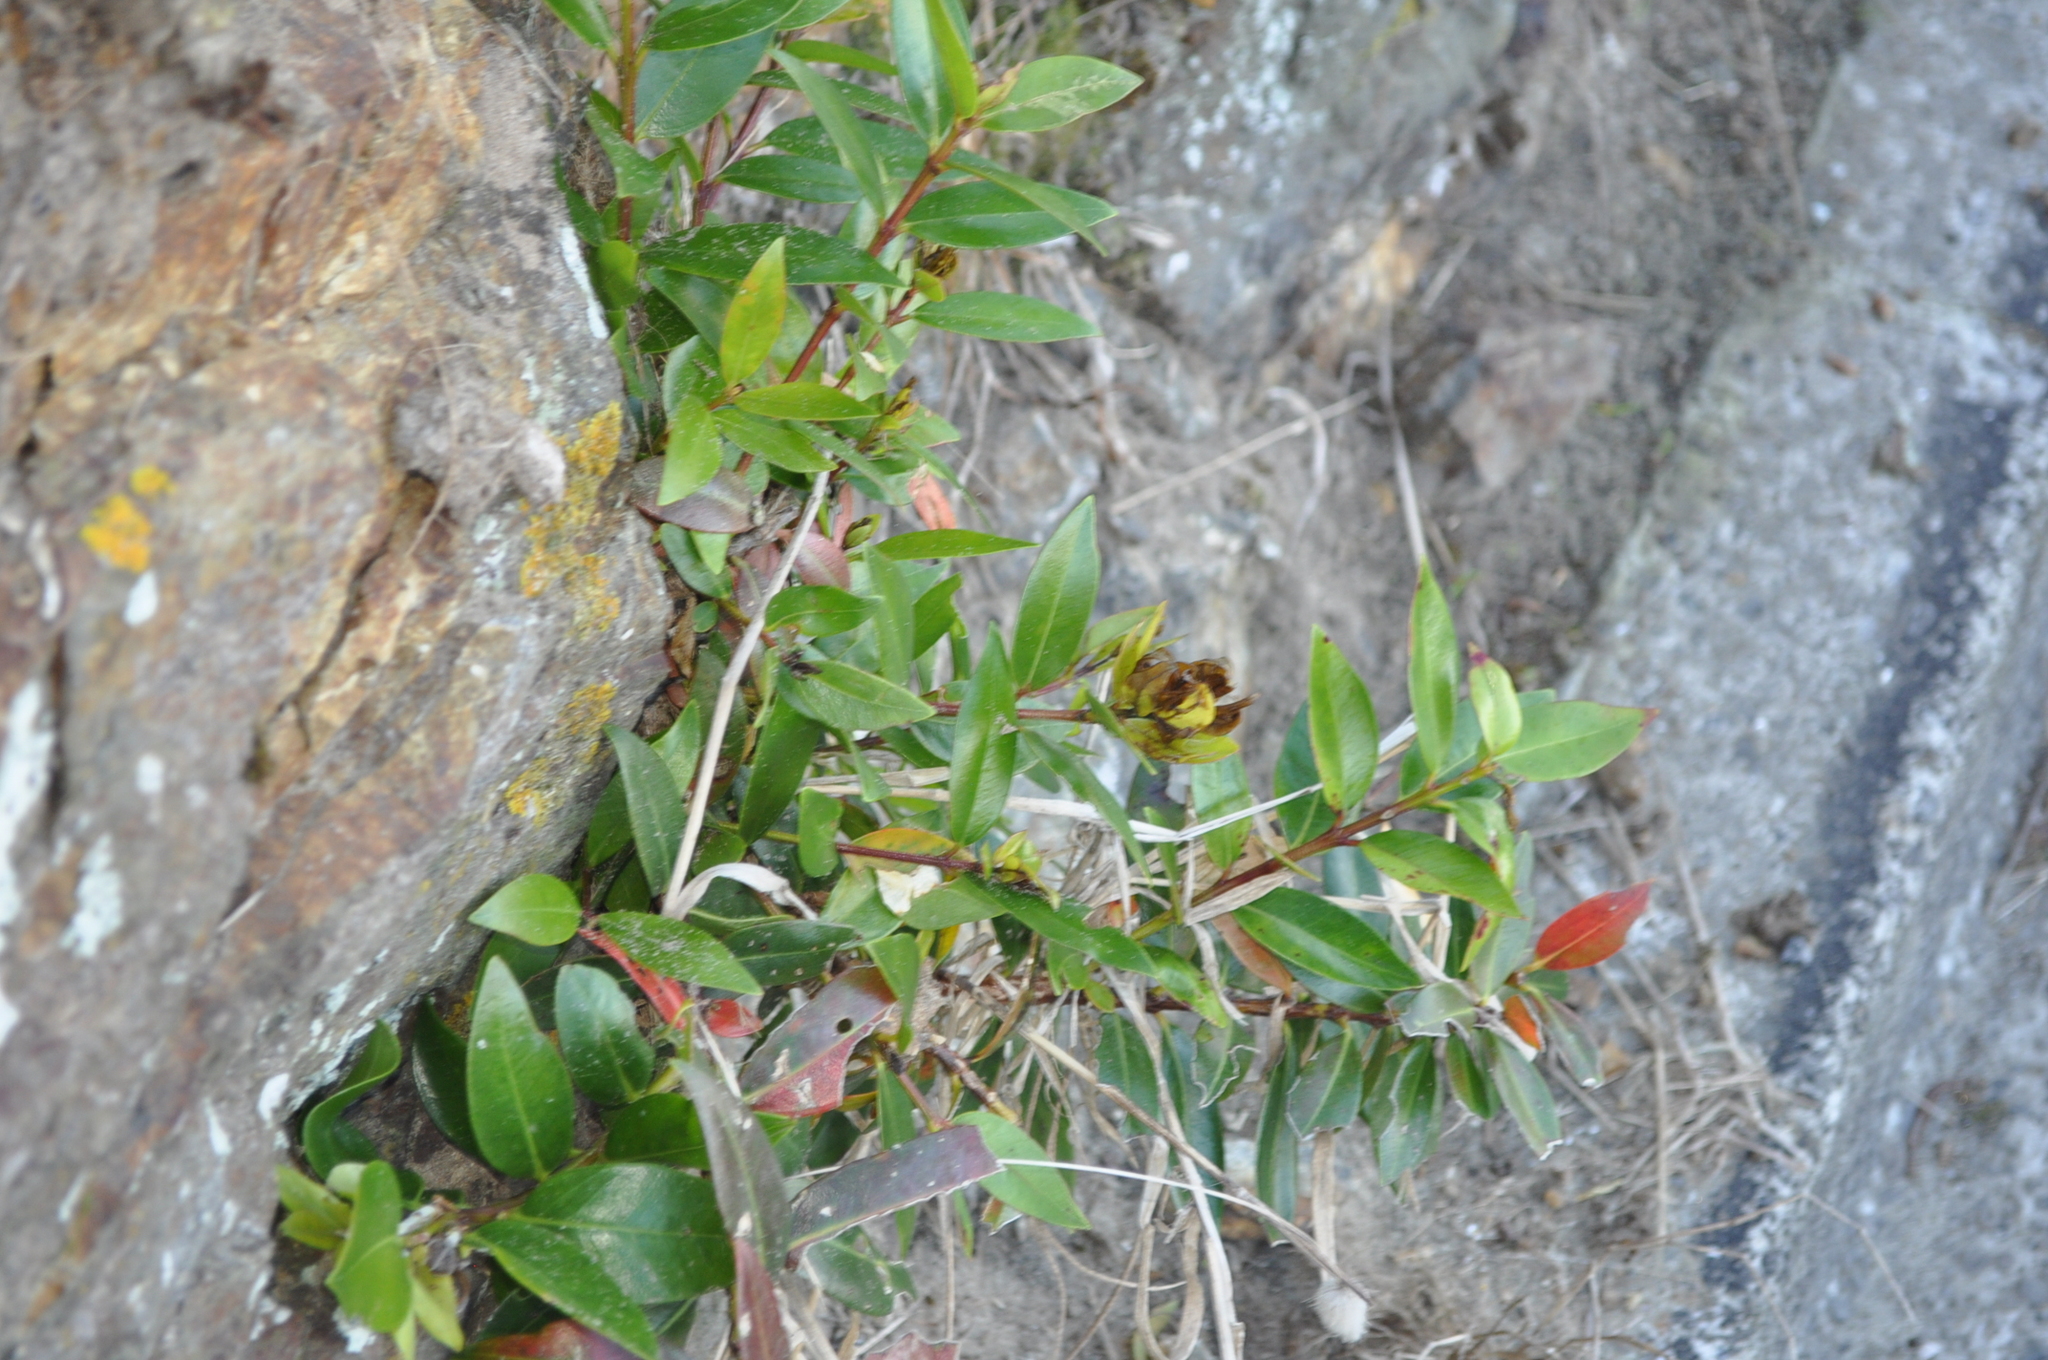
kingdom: Plantae
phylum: Tracheophyta
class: Magnoliopsida
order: Myrtales
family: Myrtaceae
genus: Metrosideros
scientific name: Metrosideros excelsa
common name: New zealand christmastree
